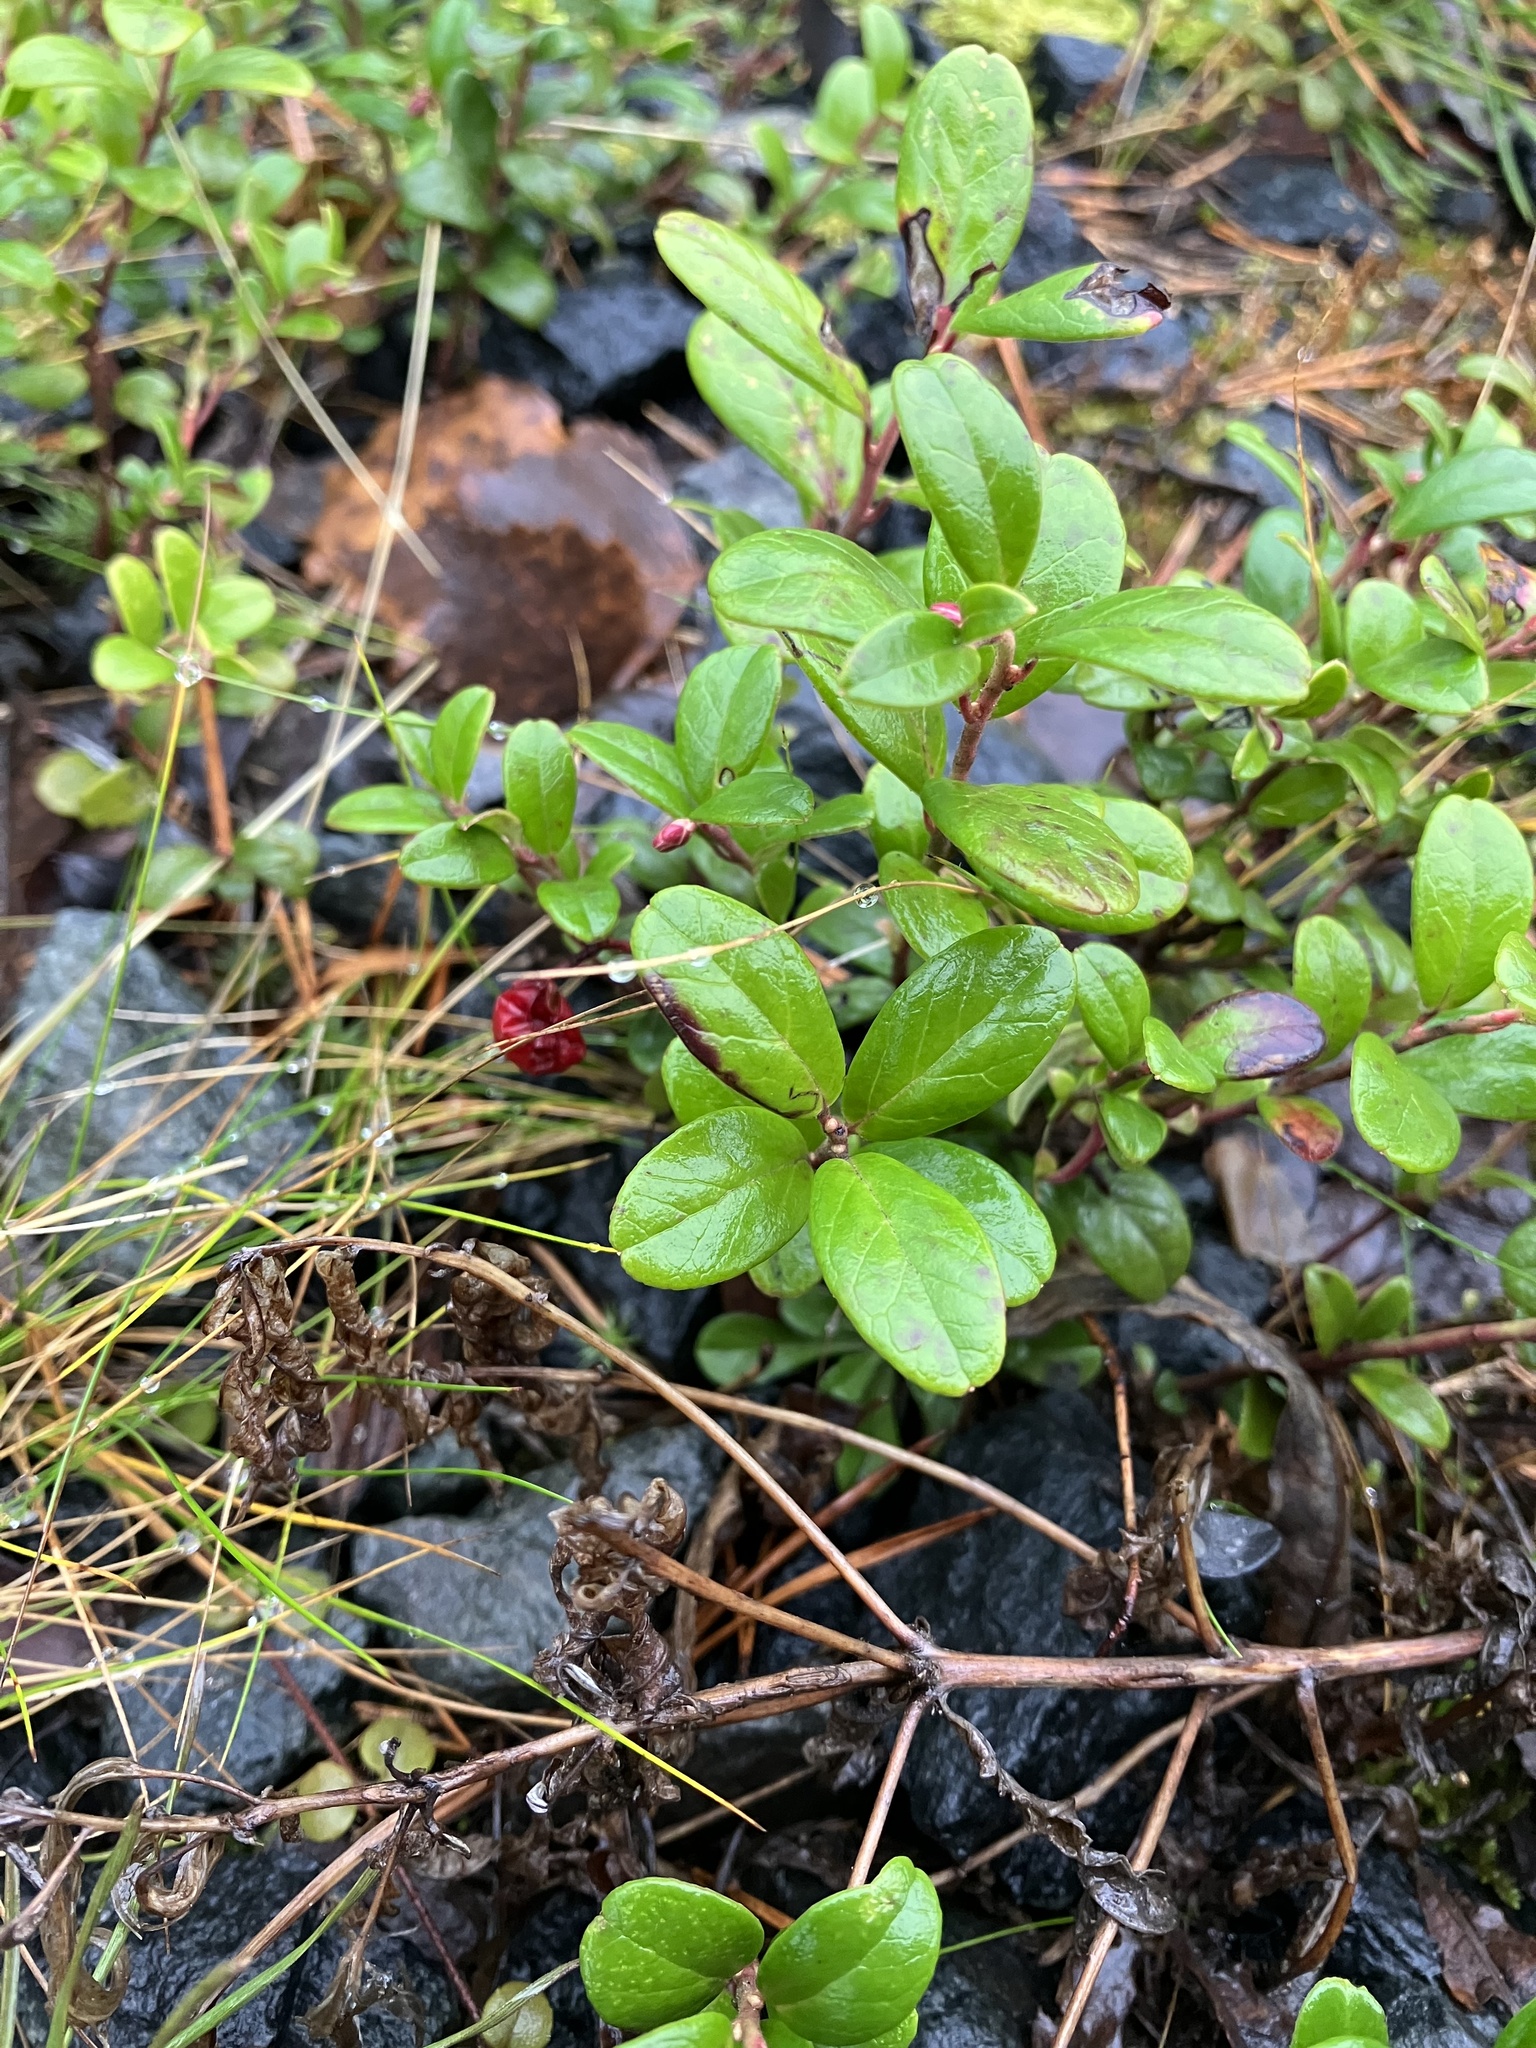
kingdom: Plantae
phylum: Tracheophyta
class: Magnoliopsida
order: Ericales
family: Ericaceae
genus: Vaccinium
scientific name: Vaccinium vitis-idaea
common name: Cowberry
